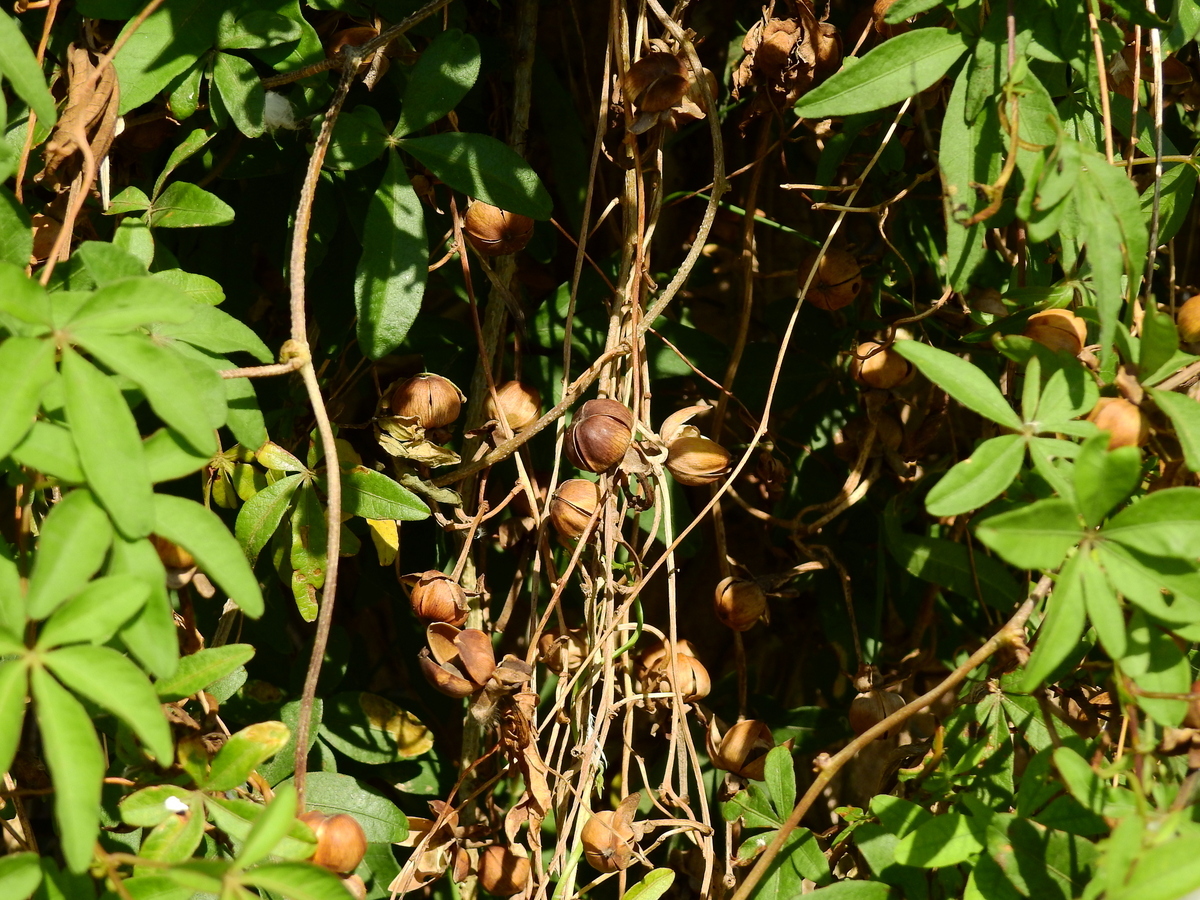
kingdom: Plantae
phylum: Tracheophyta
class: Magnoliopsida
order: Solanales
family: Convolvulaceae
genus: Ipomoea
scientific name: Ipomoea cairica
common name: Mile a minute vine
